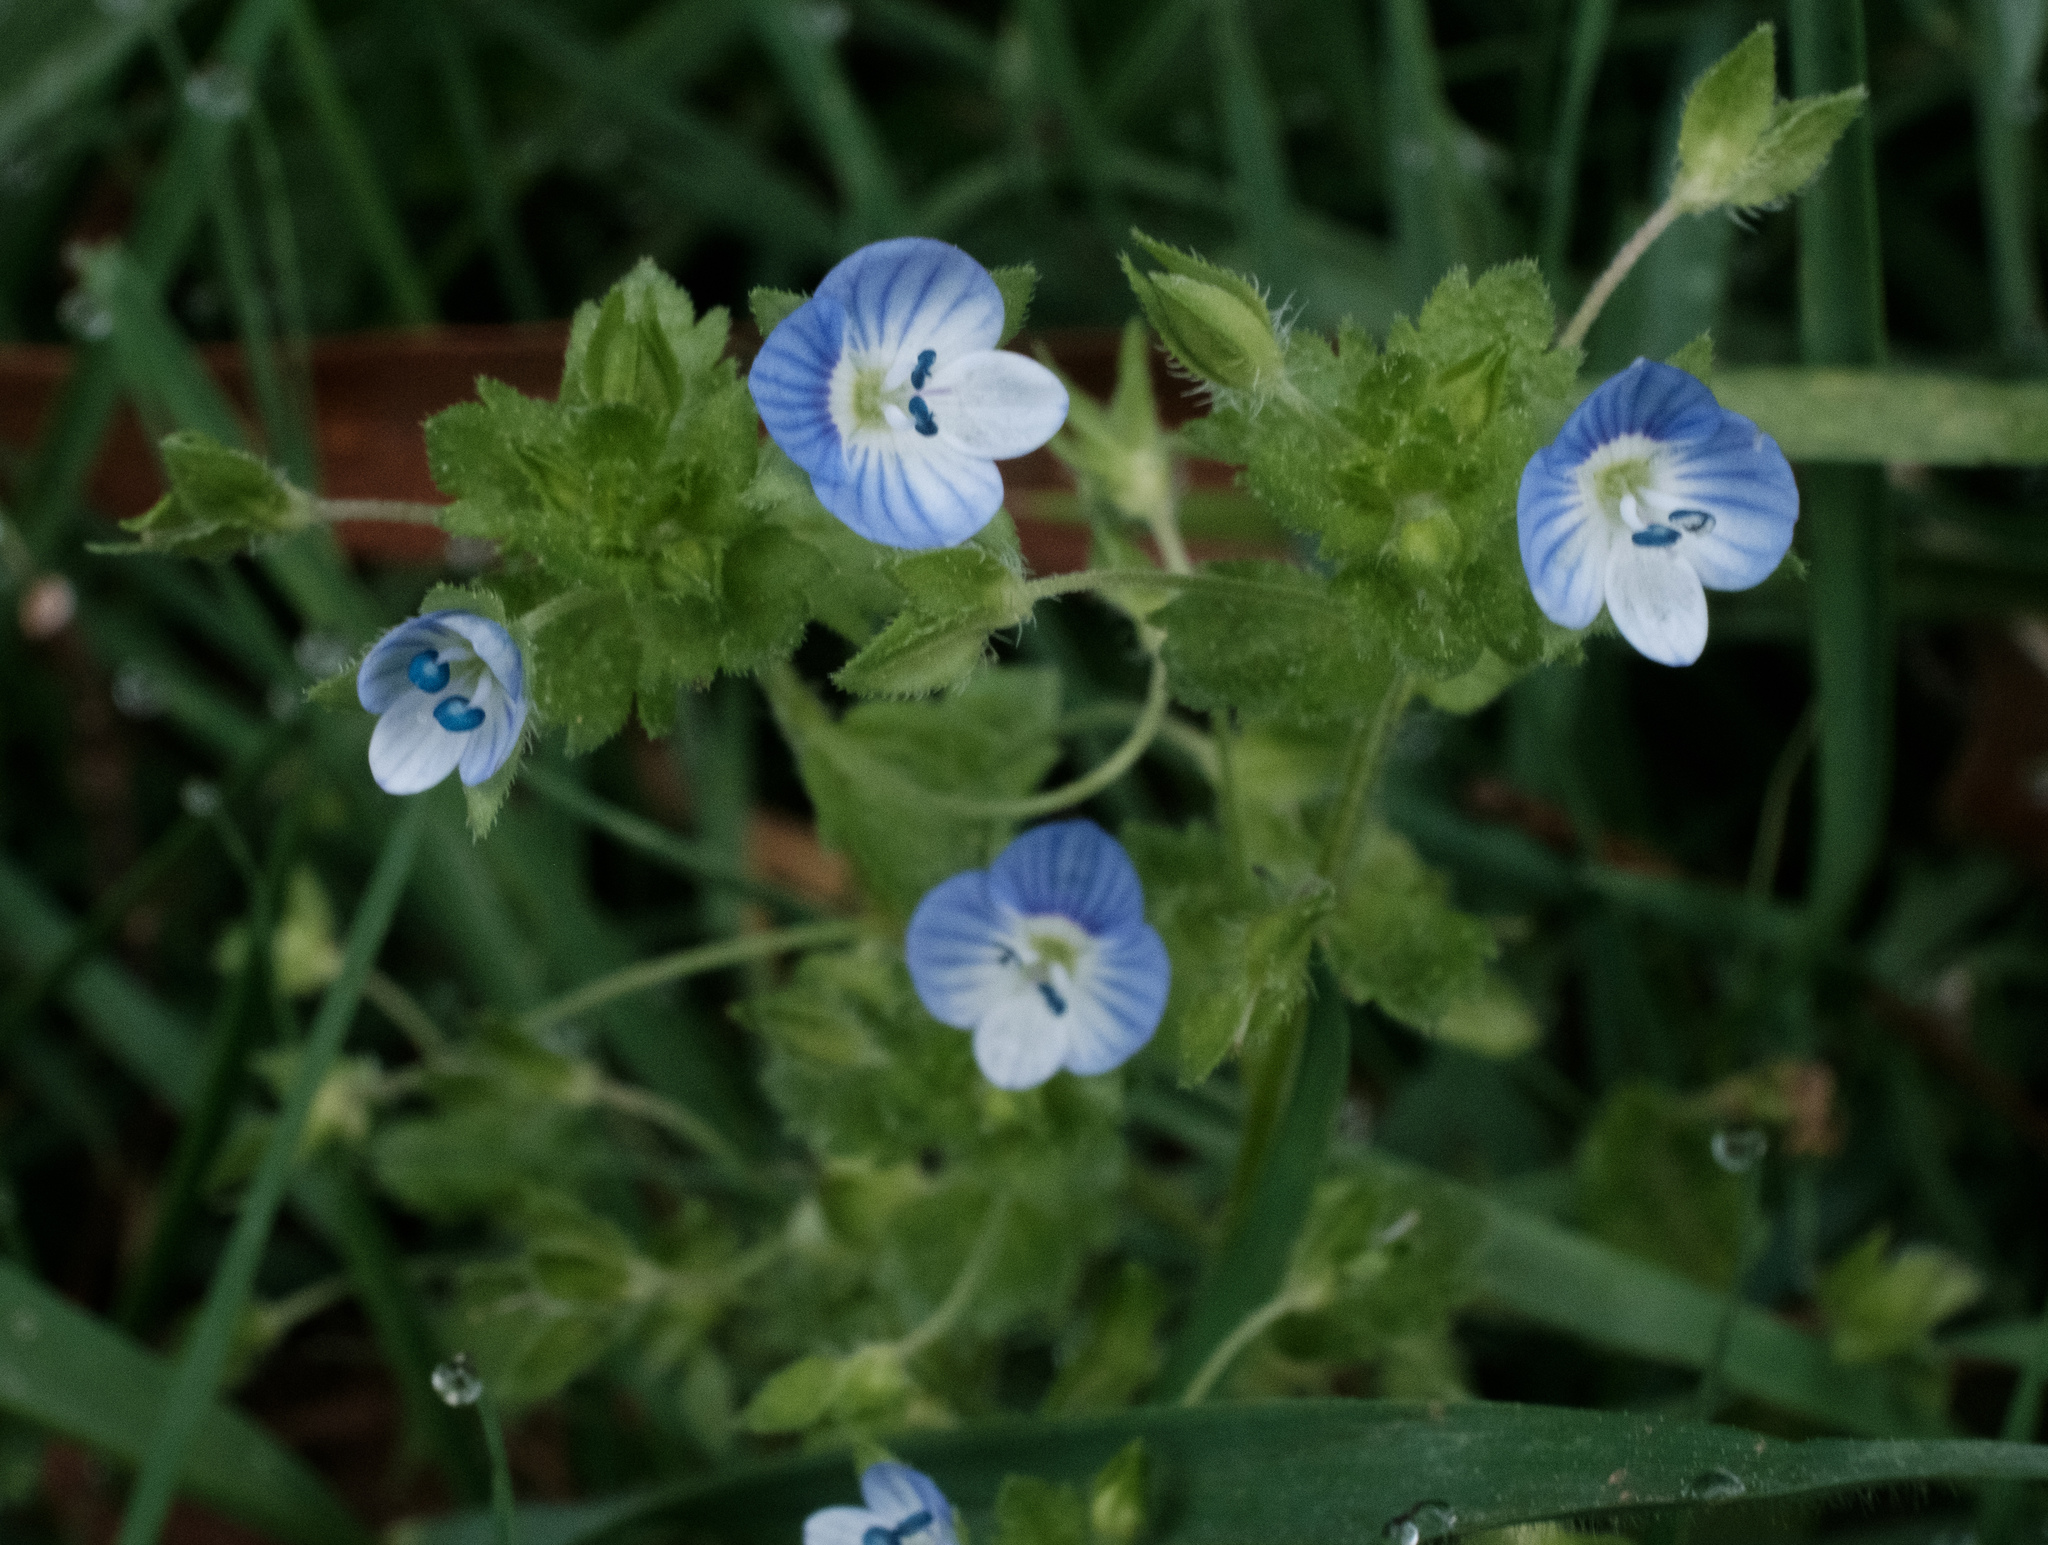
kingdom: Plantae
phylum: Tracheophyta
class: Magnoliopsida
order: Lamiales
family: Plantaginaceae
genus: Veronica
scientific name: Veronica persica
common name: Common field-speedwell
